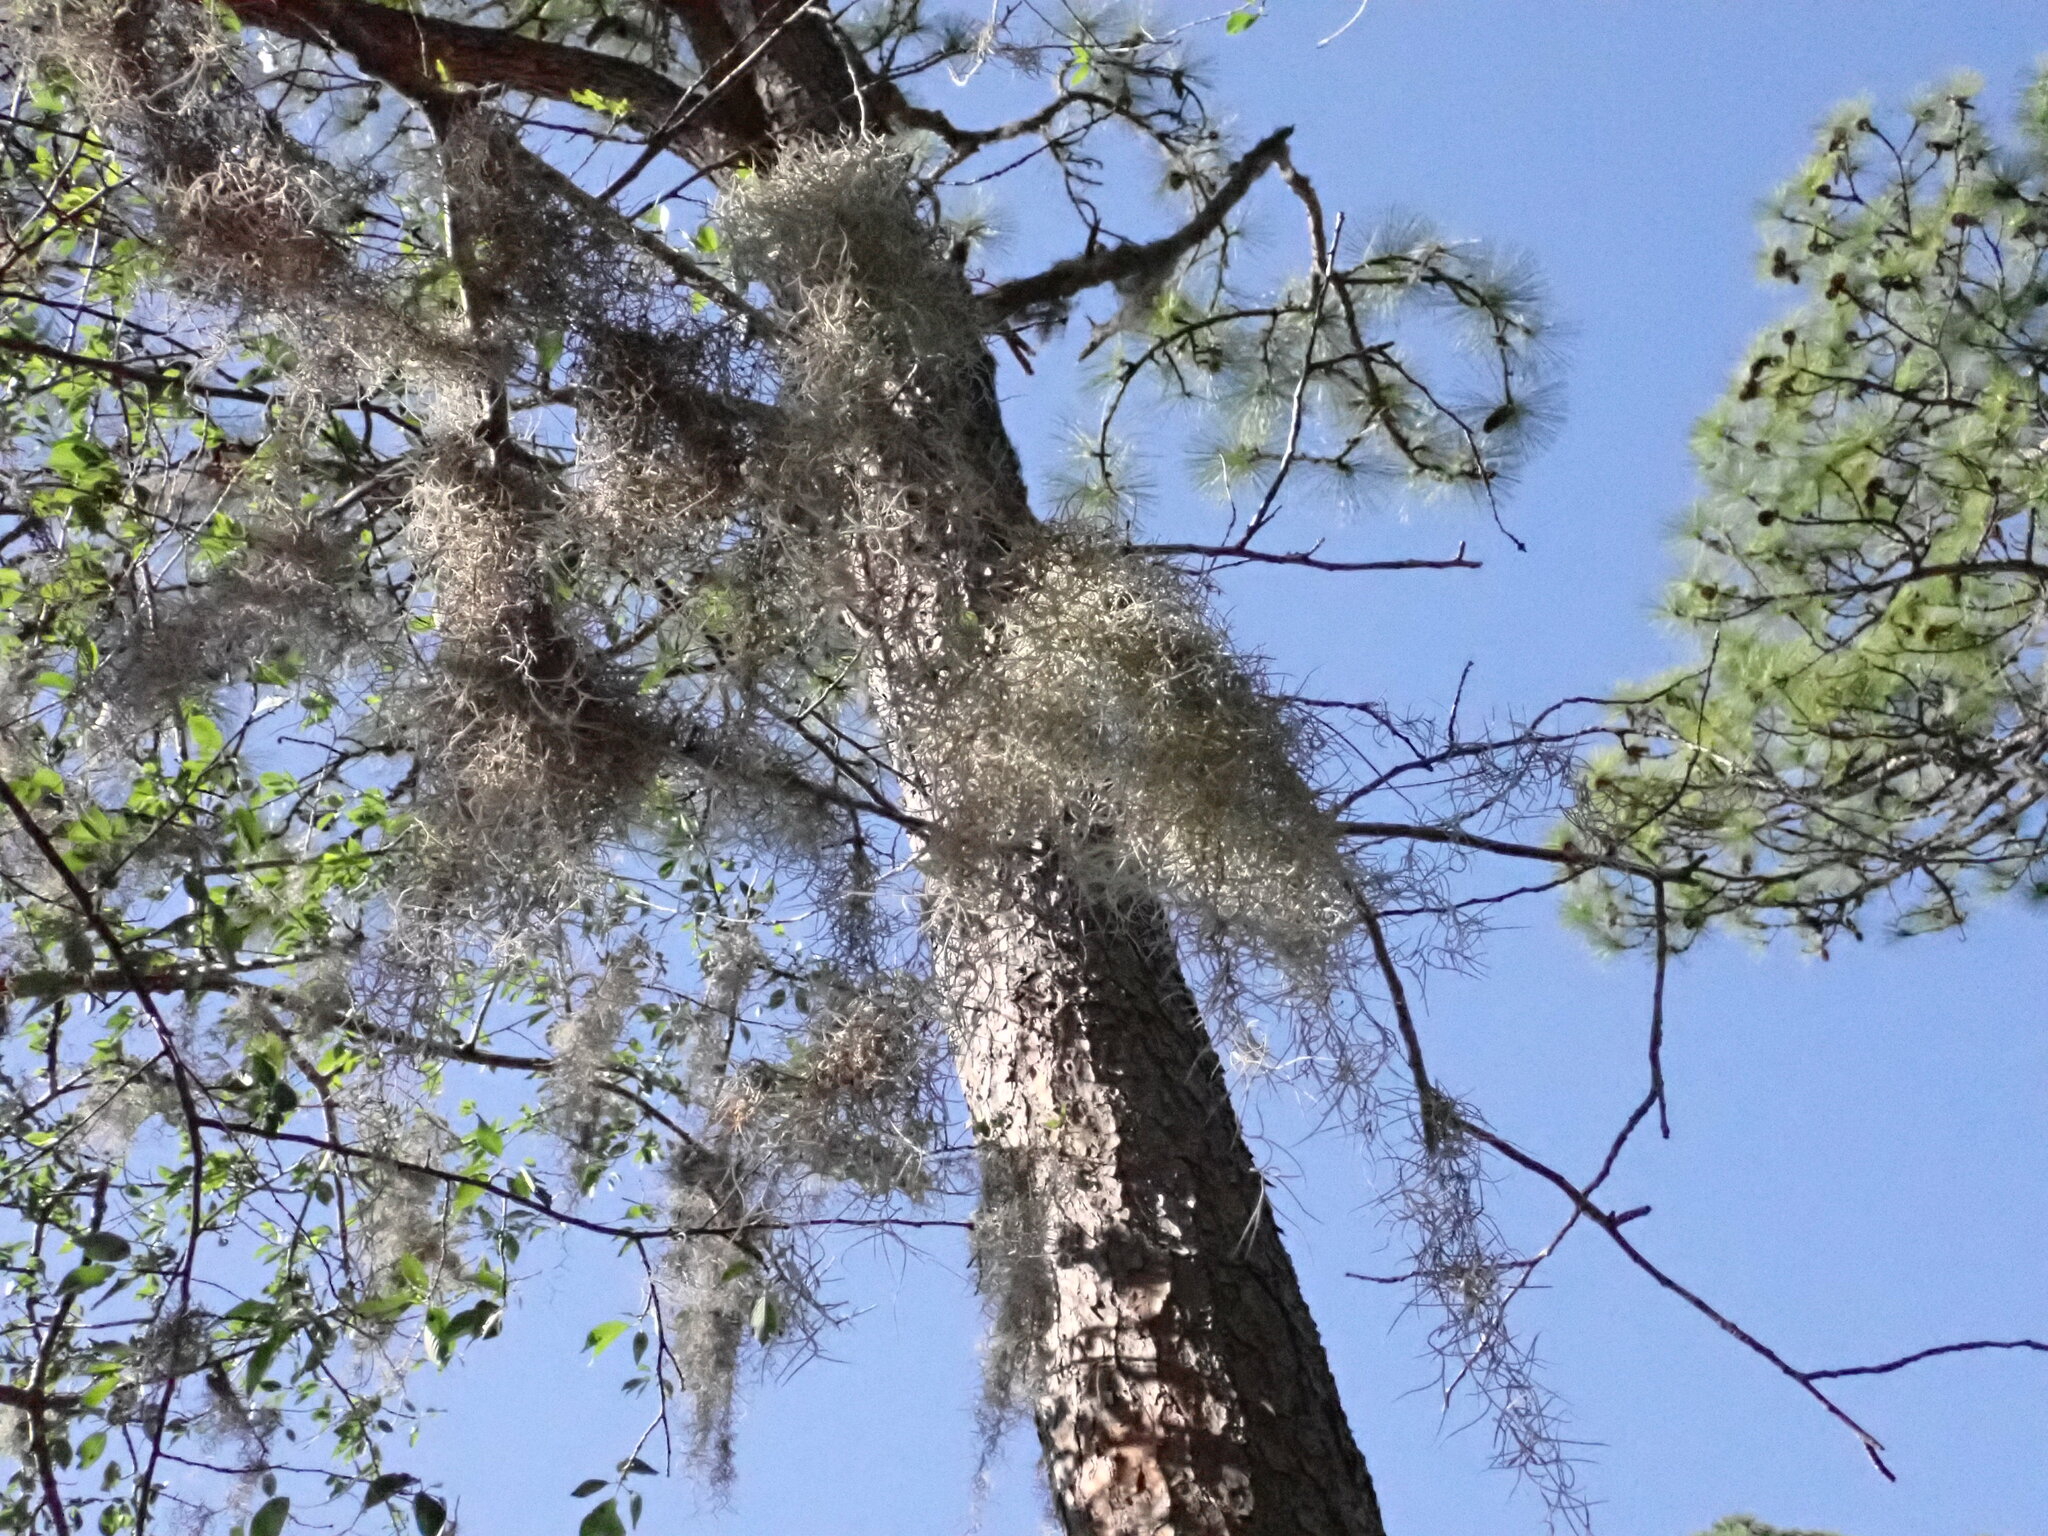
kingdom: Plantae
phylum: Tracheophyta
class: Liliopsida
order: Poales
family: Bromeliaceae
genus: Tillandsia
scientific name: Tillandsia usneoides
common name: Spanish moss
